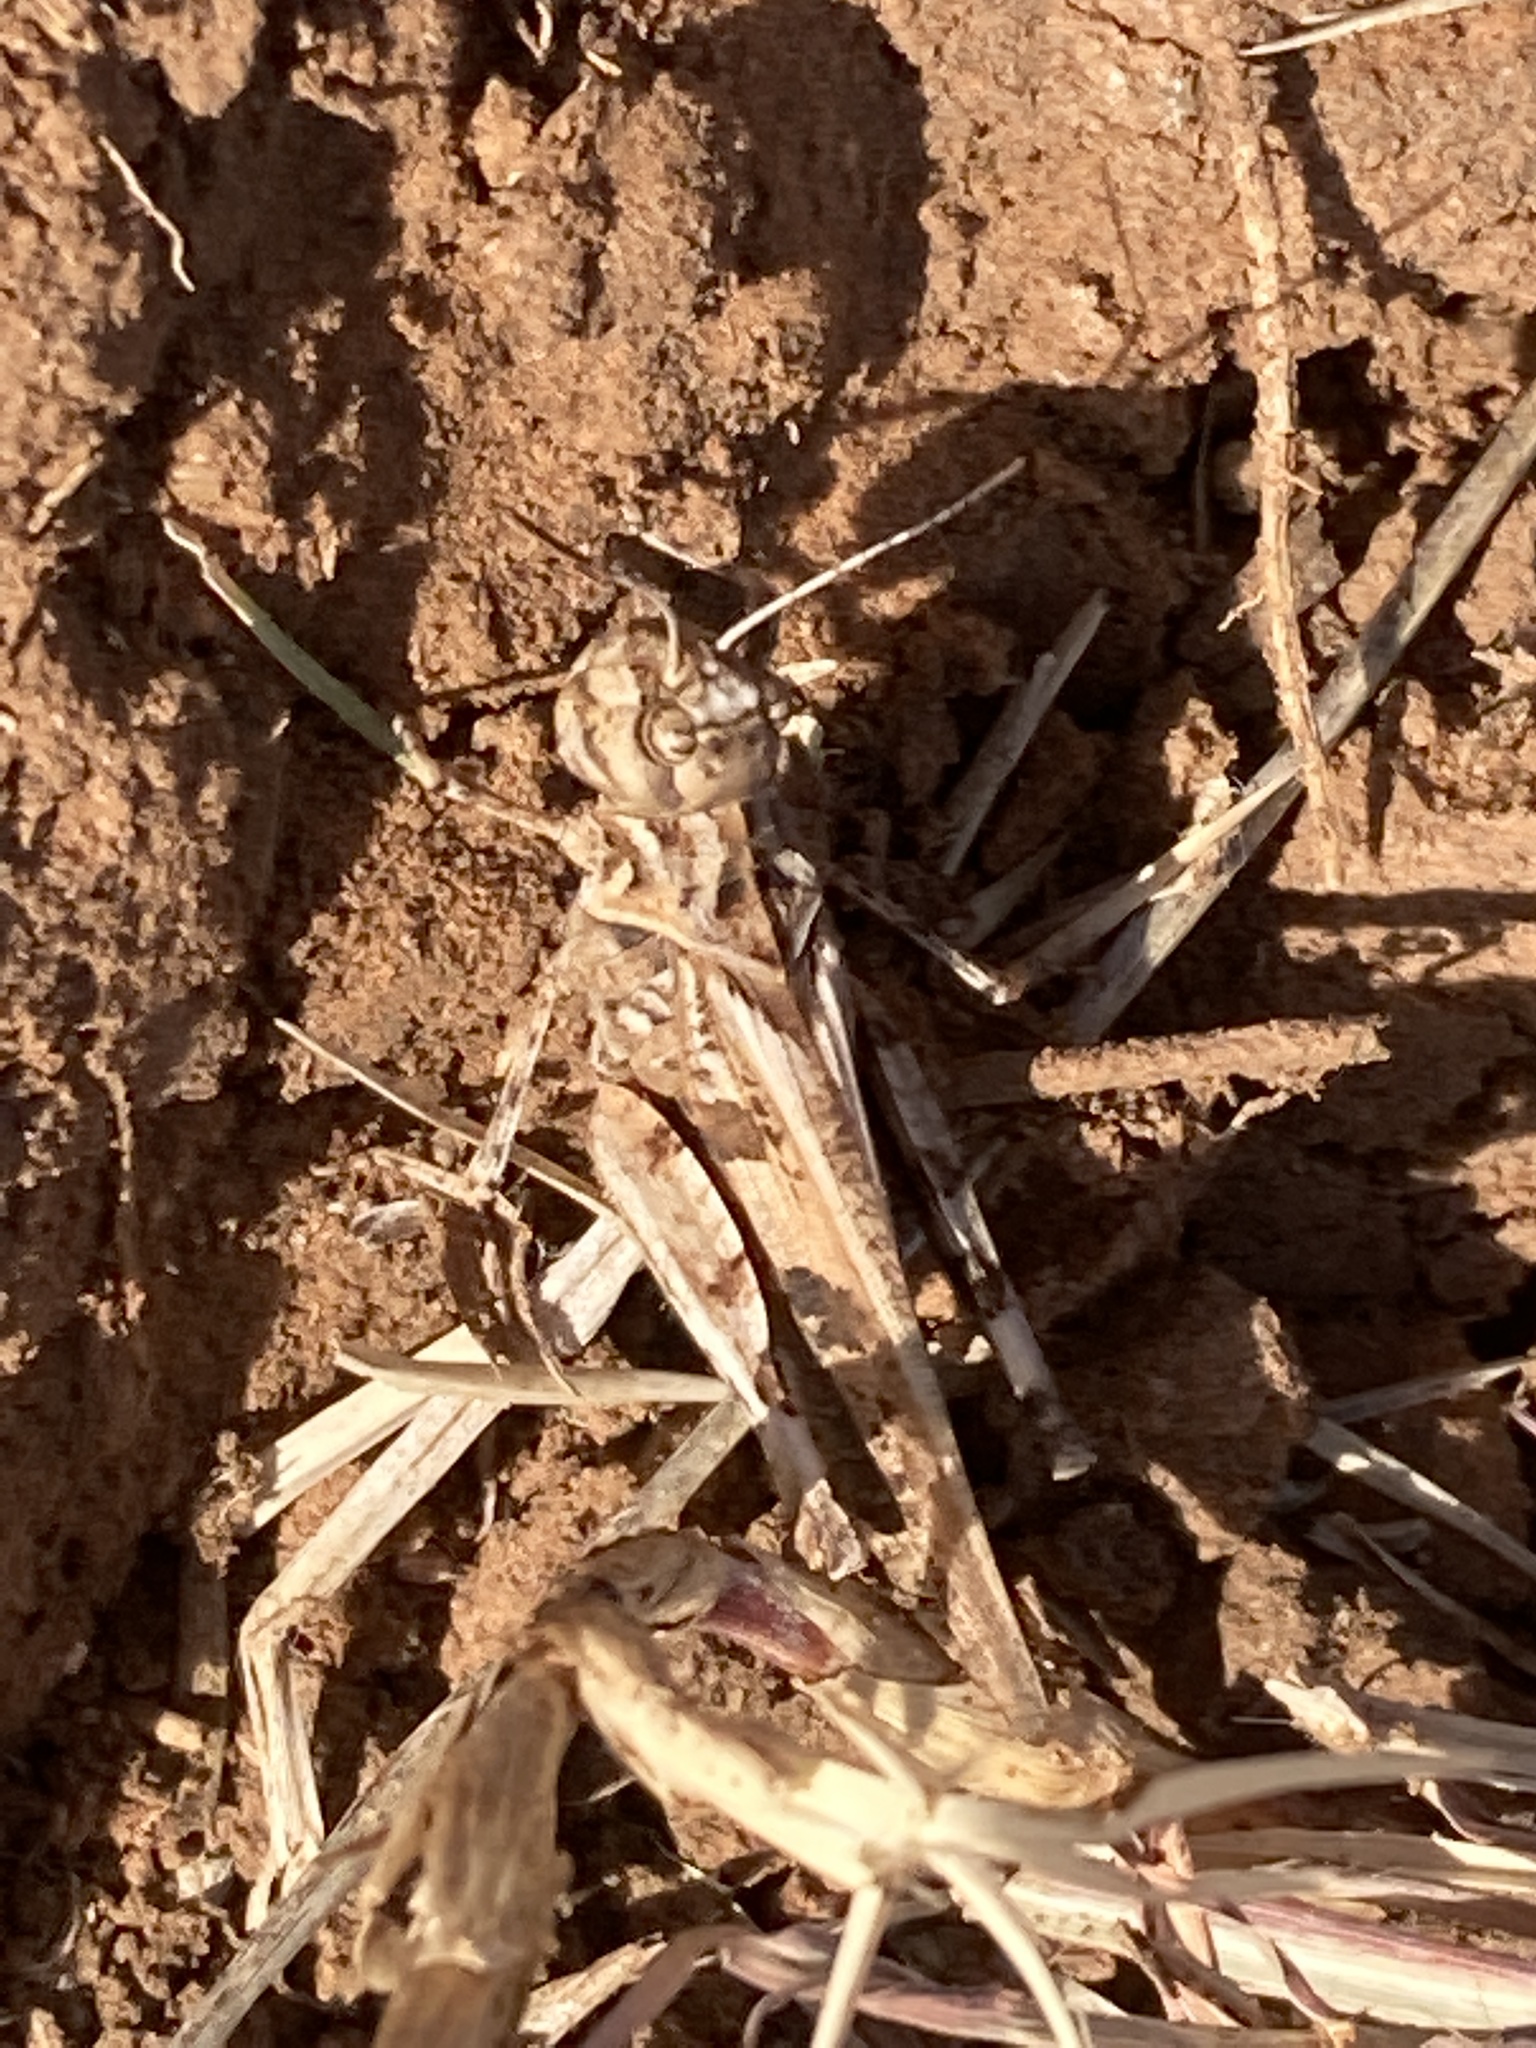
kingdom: Animalia
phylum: Arthropoda
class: Insecta
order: Orthoptera
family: Acrididae
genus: Trachyrhachys
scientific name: Trachyrhachys kiowa
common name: Kiowa grasshopper
